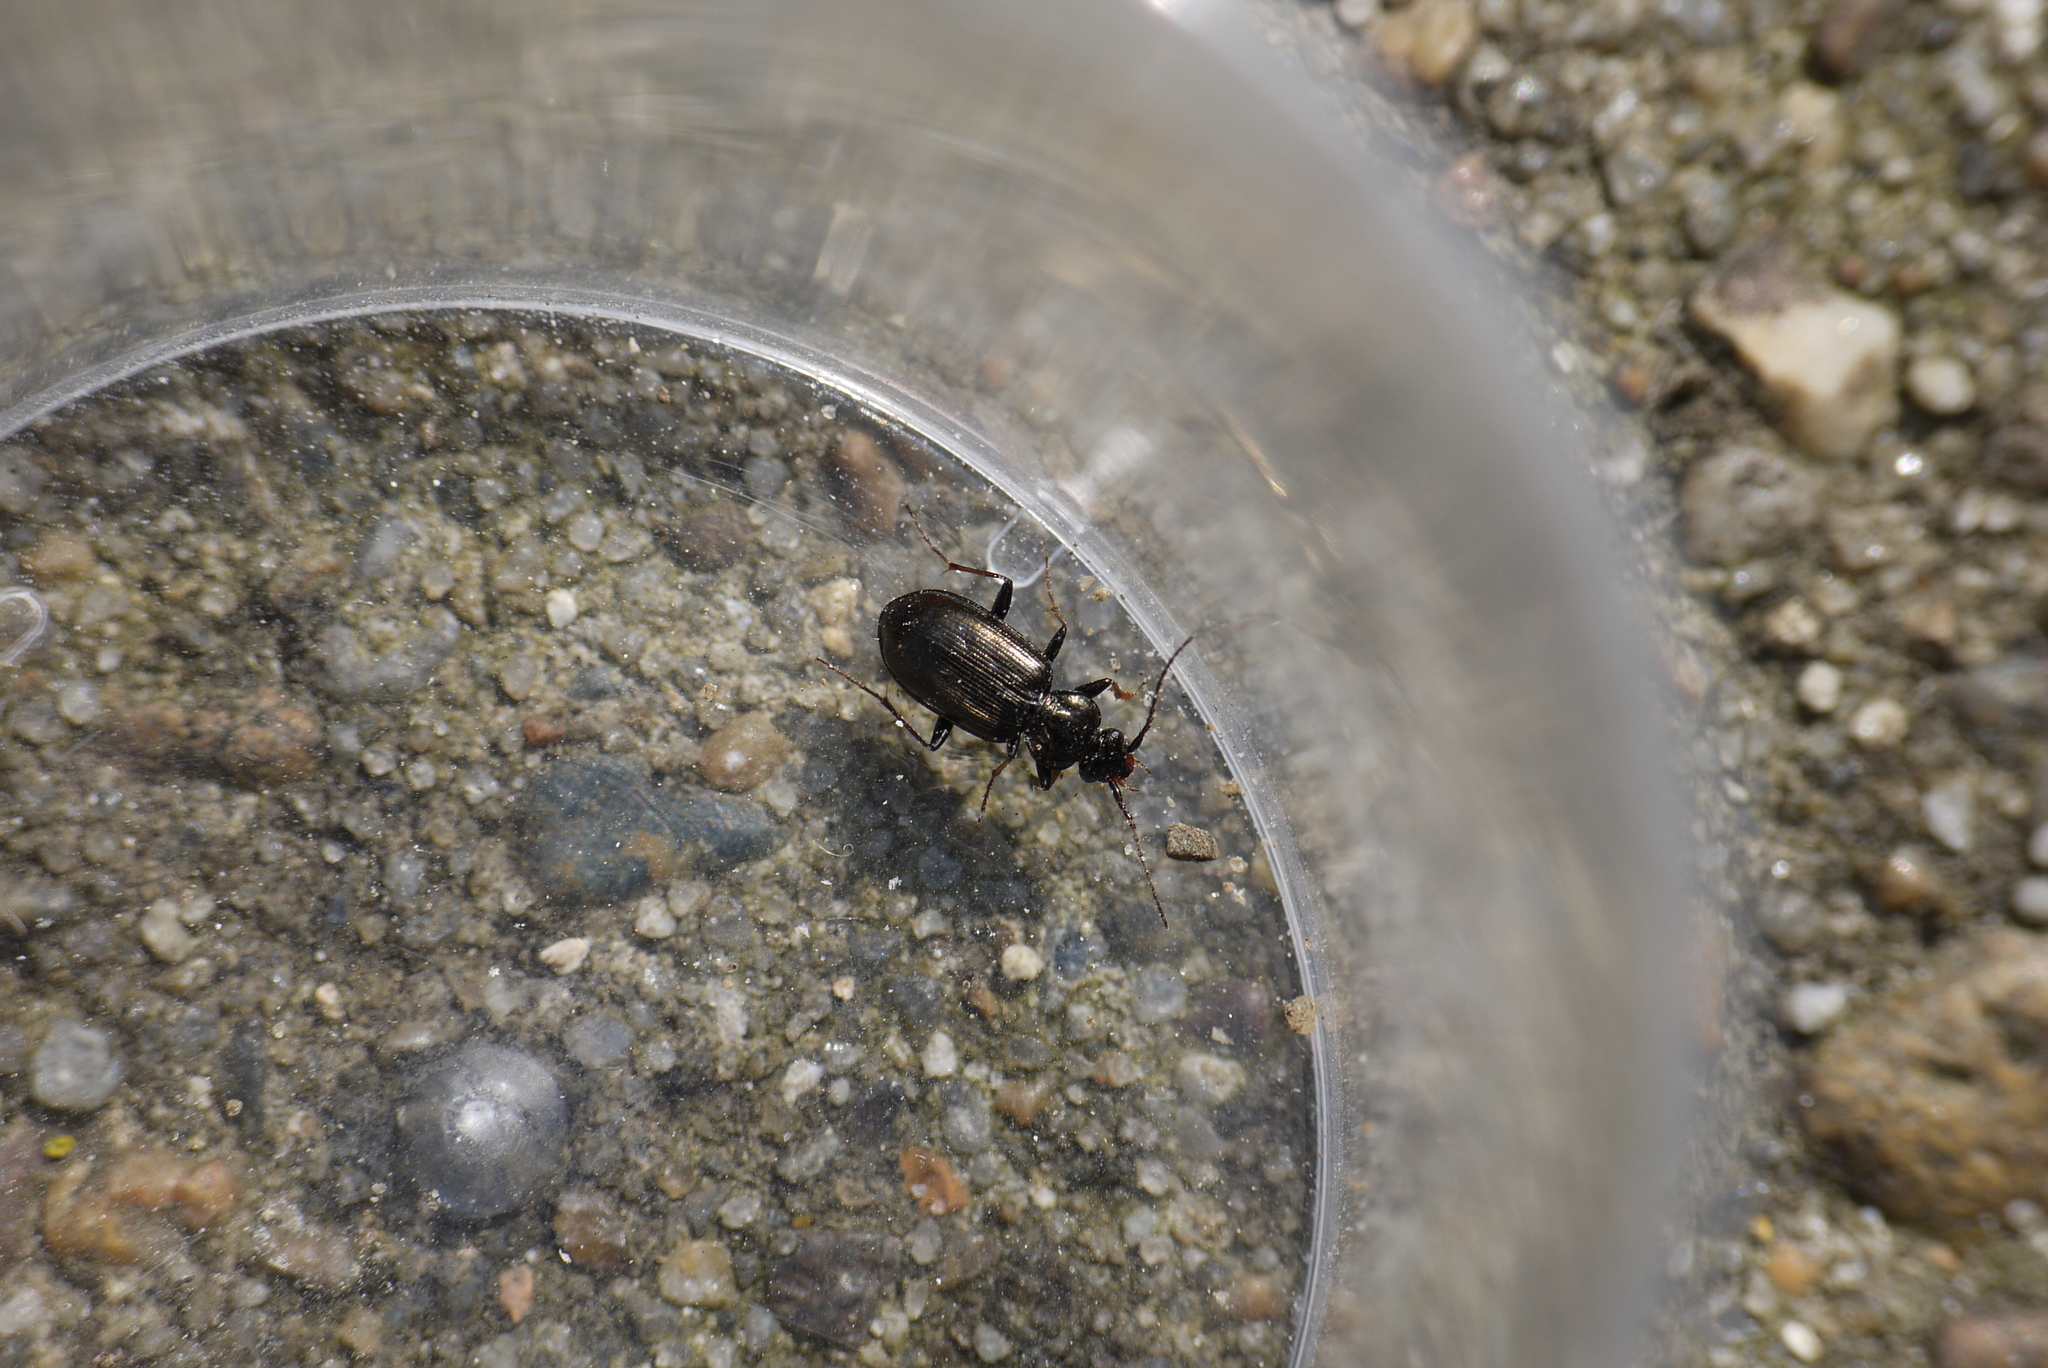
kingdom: Animalia
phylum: Arthropoda
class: Insecta
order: Coleoptera
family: Carabidae
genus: Loricera
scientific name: Loricera pilicornis
